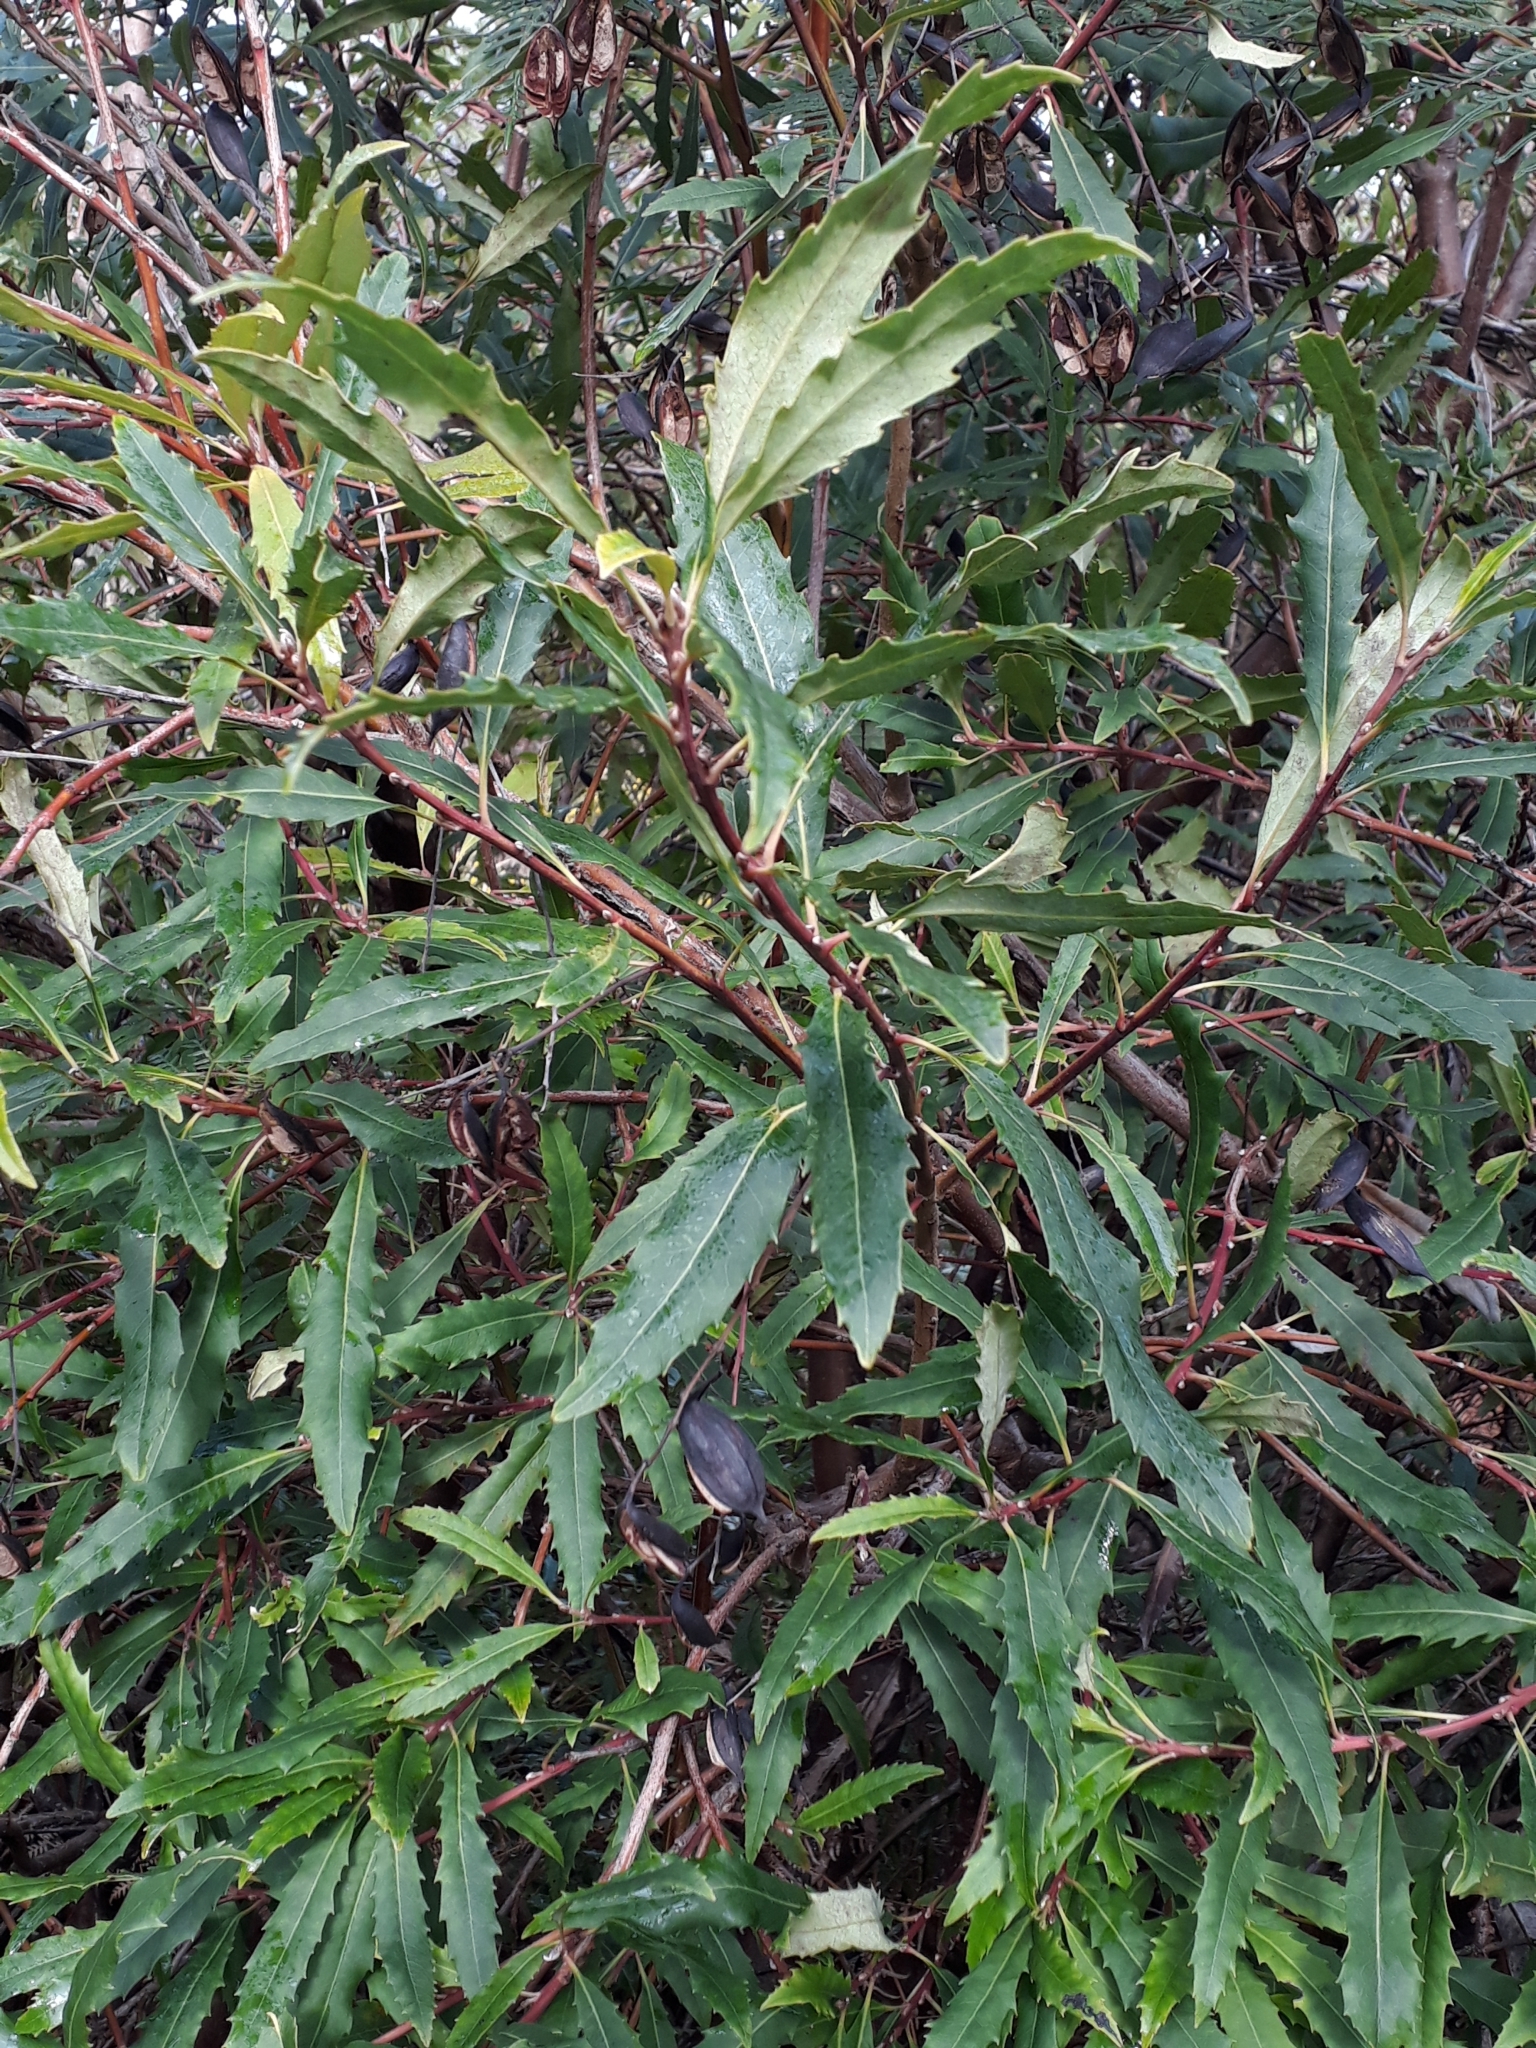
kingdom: Plantae
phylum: Tracheophyta
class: Magnoliopsida
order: Proteales
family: Proteaceae
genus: Lomatia
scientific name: Lomatia fraseri
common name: Forest lomatia
